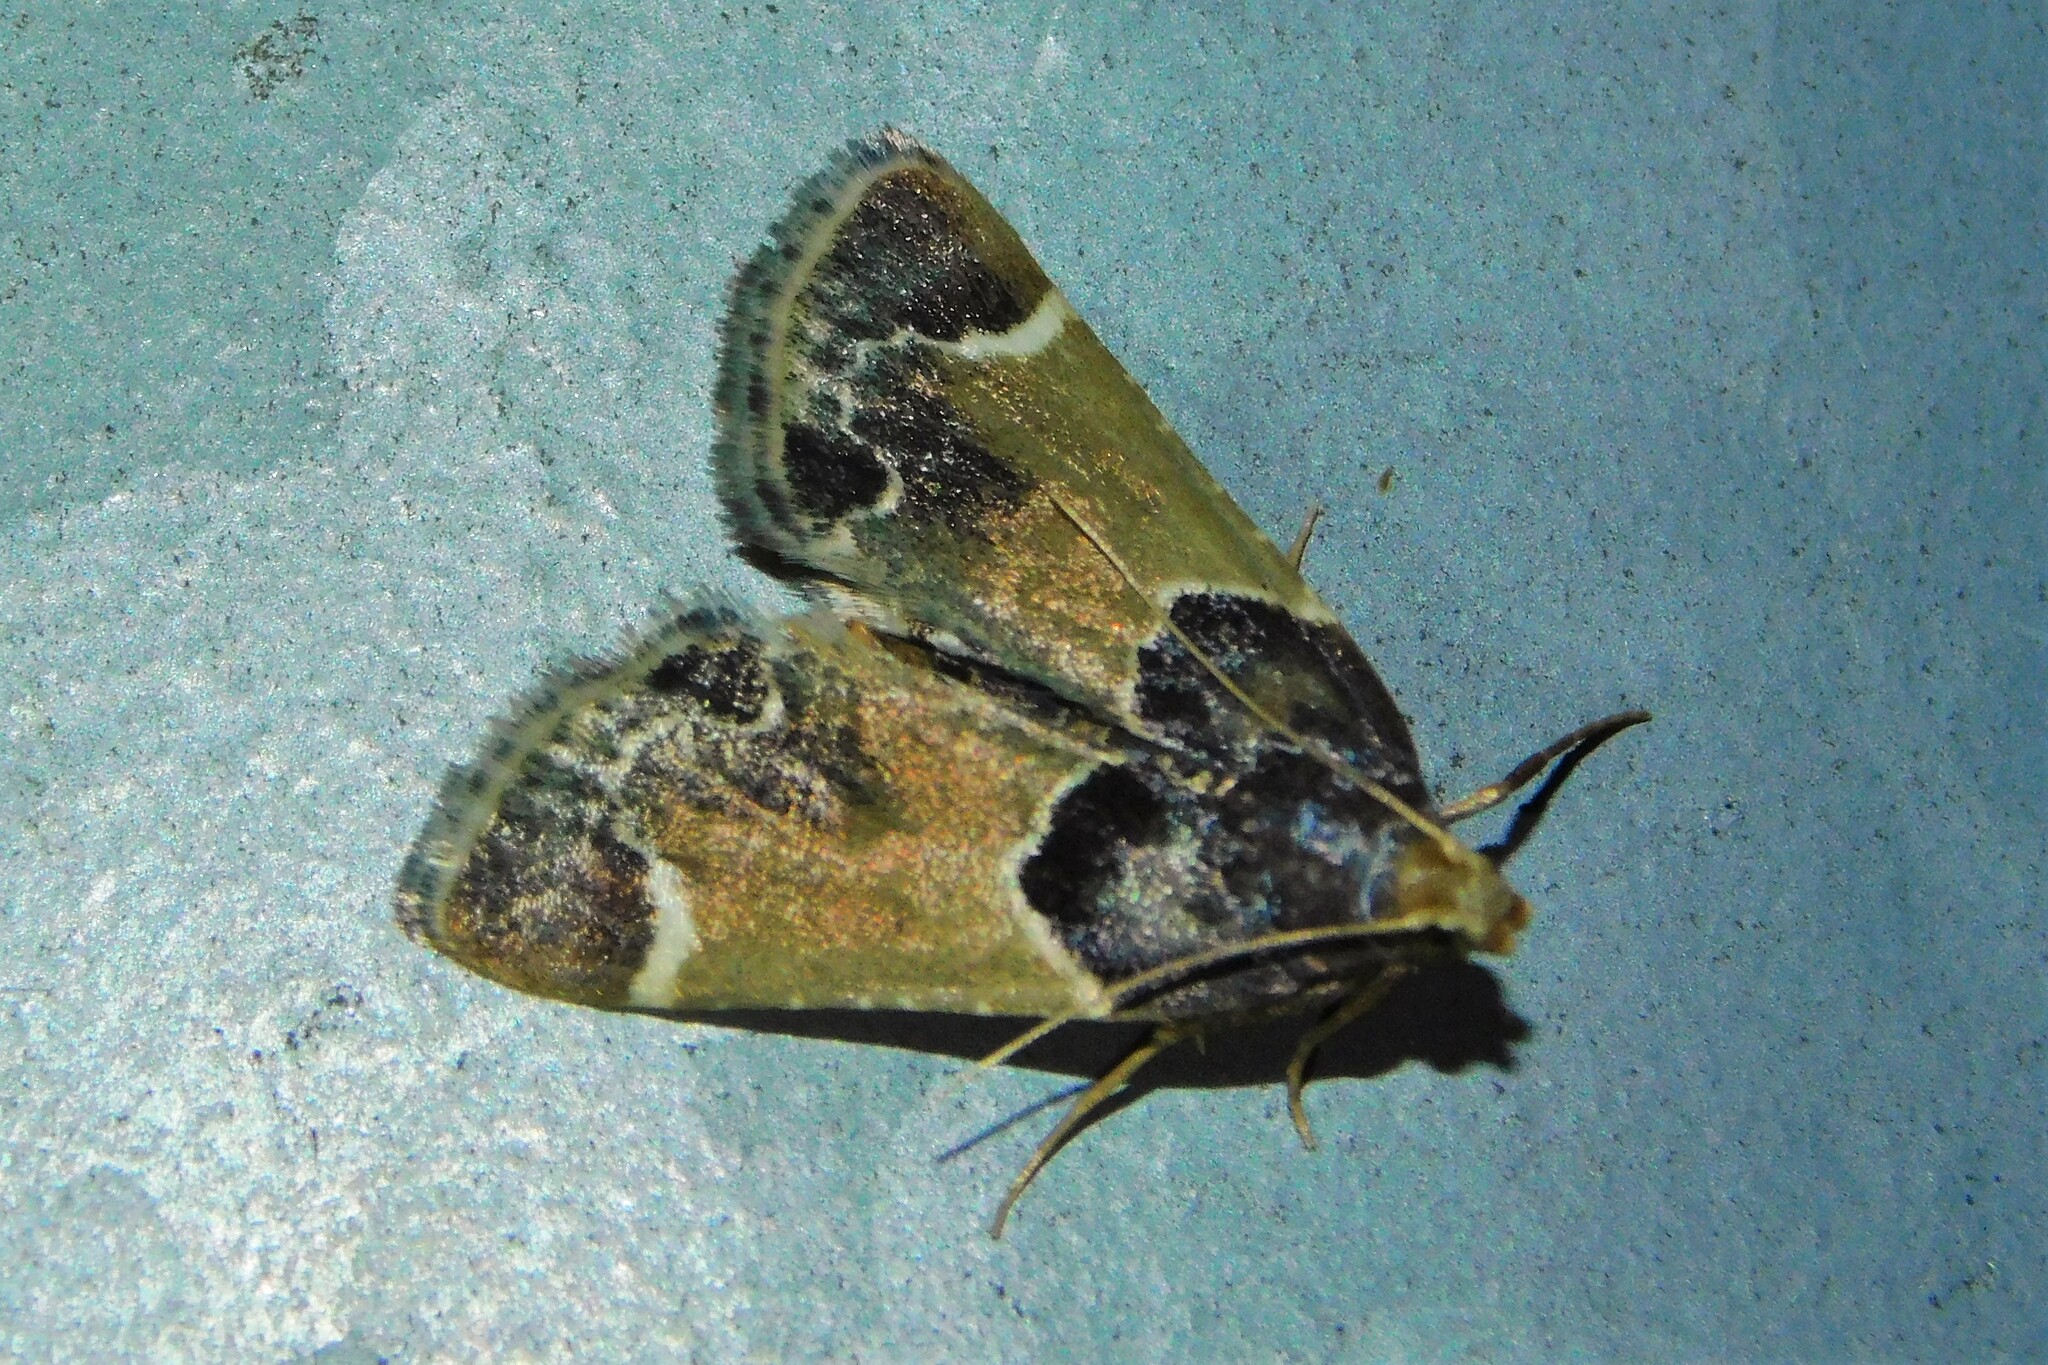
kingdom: Animalia
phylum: Arthropoda
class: Insecta
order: Lepidoptera
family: Pyralidae
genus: Pyralis
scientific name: Pyralis farinalis
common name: Meal moth
